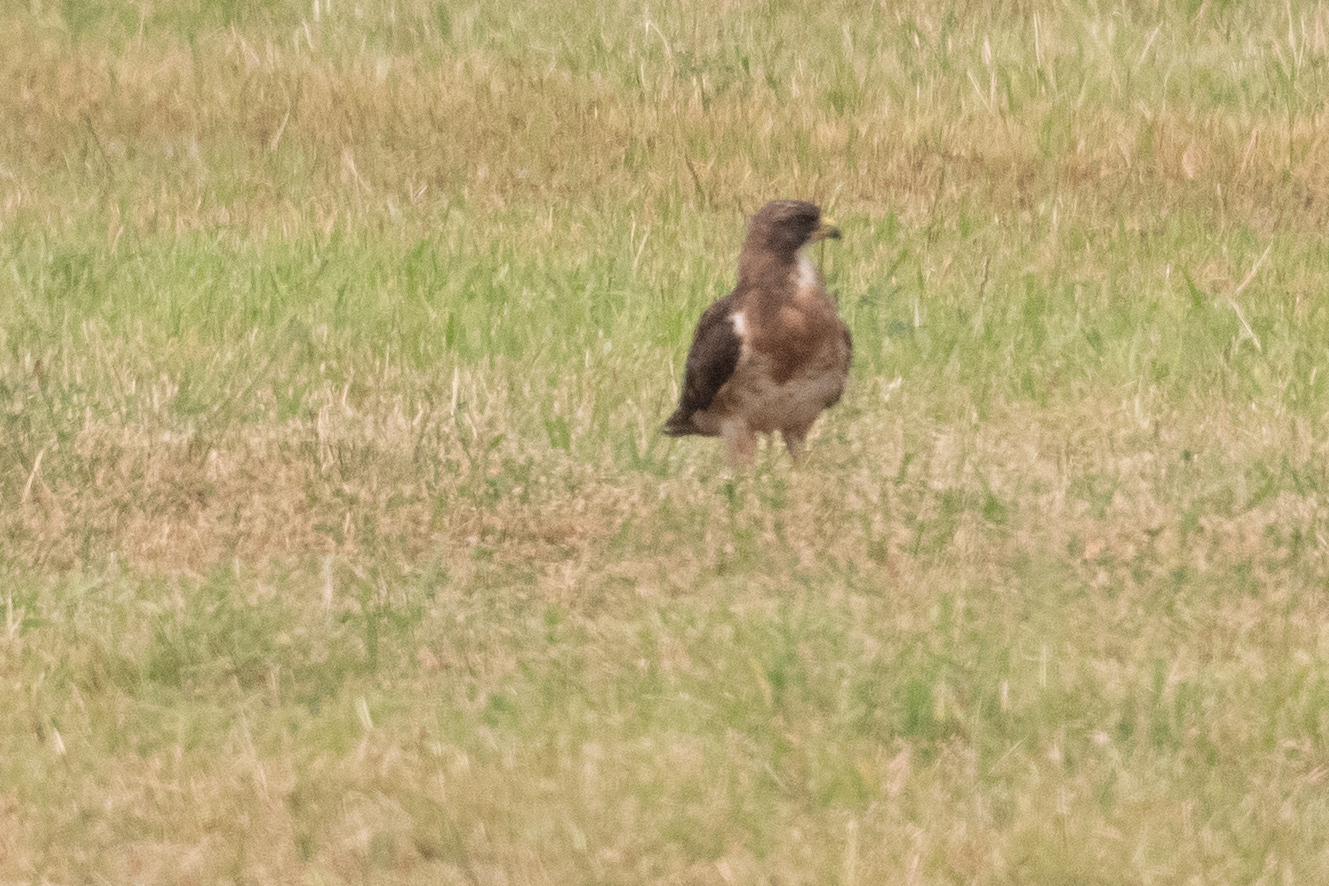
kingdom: Animalia
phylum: Chordata
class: Aves
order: Accipitriformes
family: Accipitridae
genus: Buteo
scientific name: Buteo swainsoni
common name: Swainson's hawk
